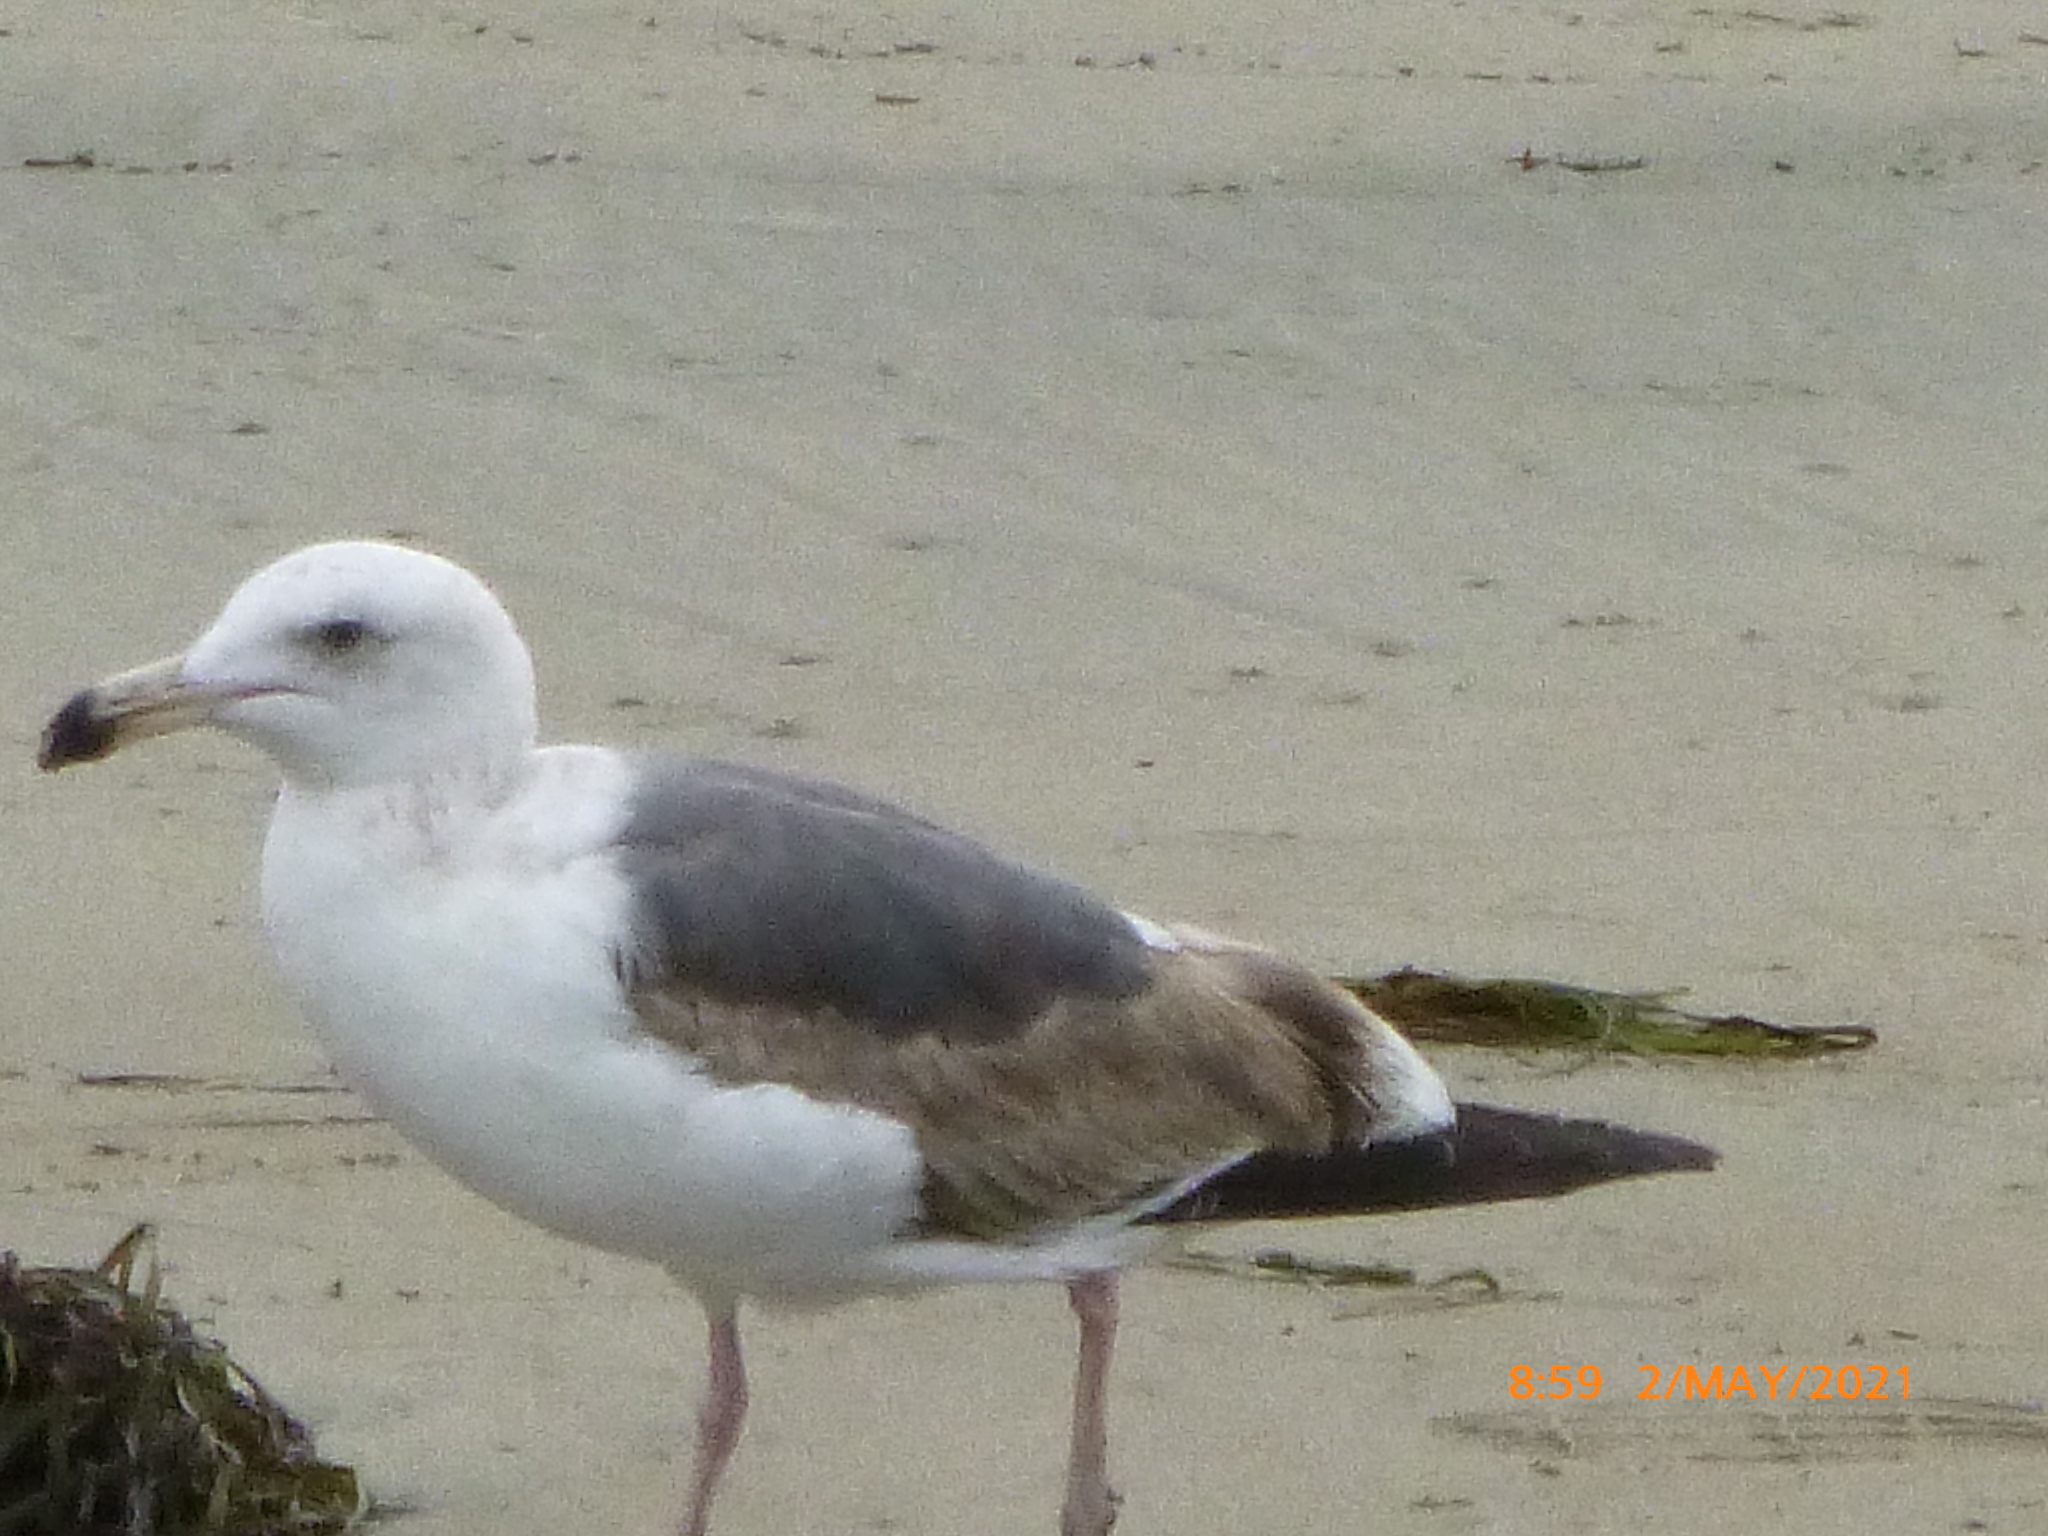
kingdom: Animalia
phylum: Chordata
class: Aves
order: Charadriiformes
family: Laridae
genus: Larus
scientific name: Larus occidentalis
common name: Western gull
